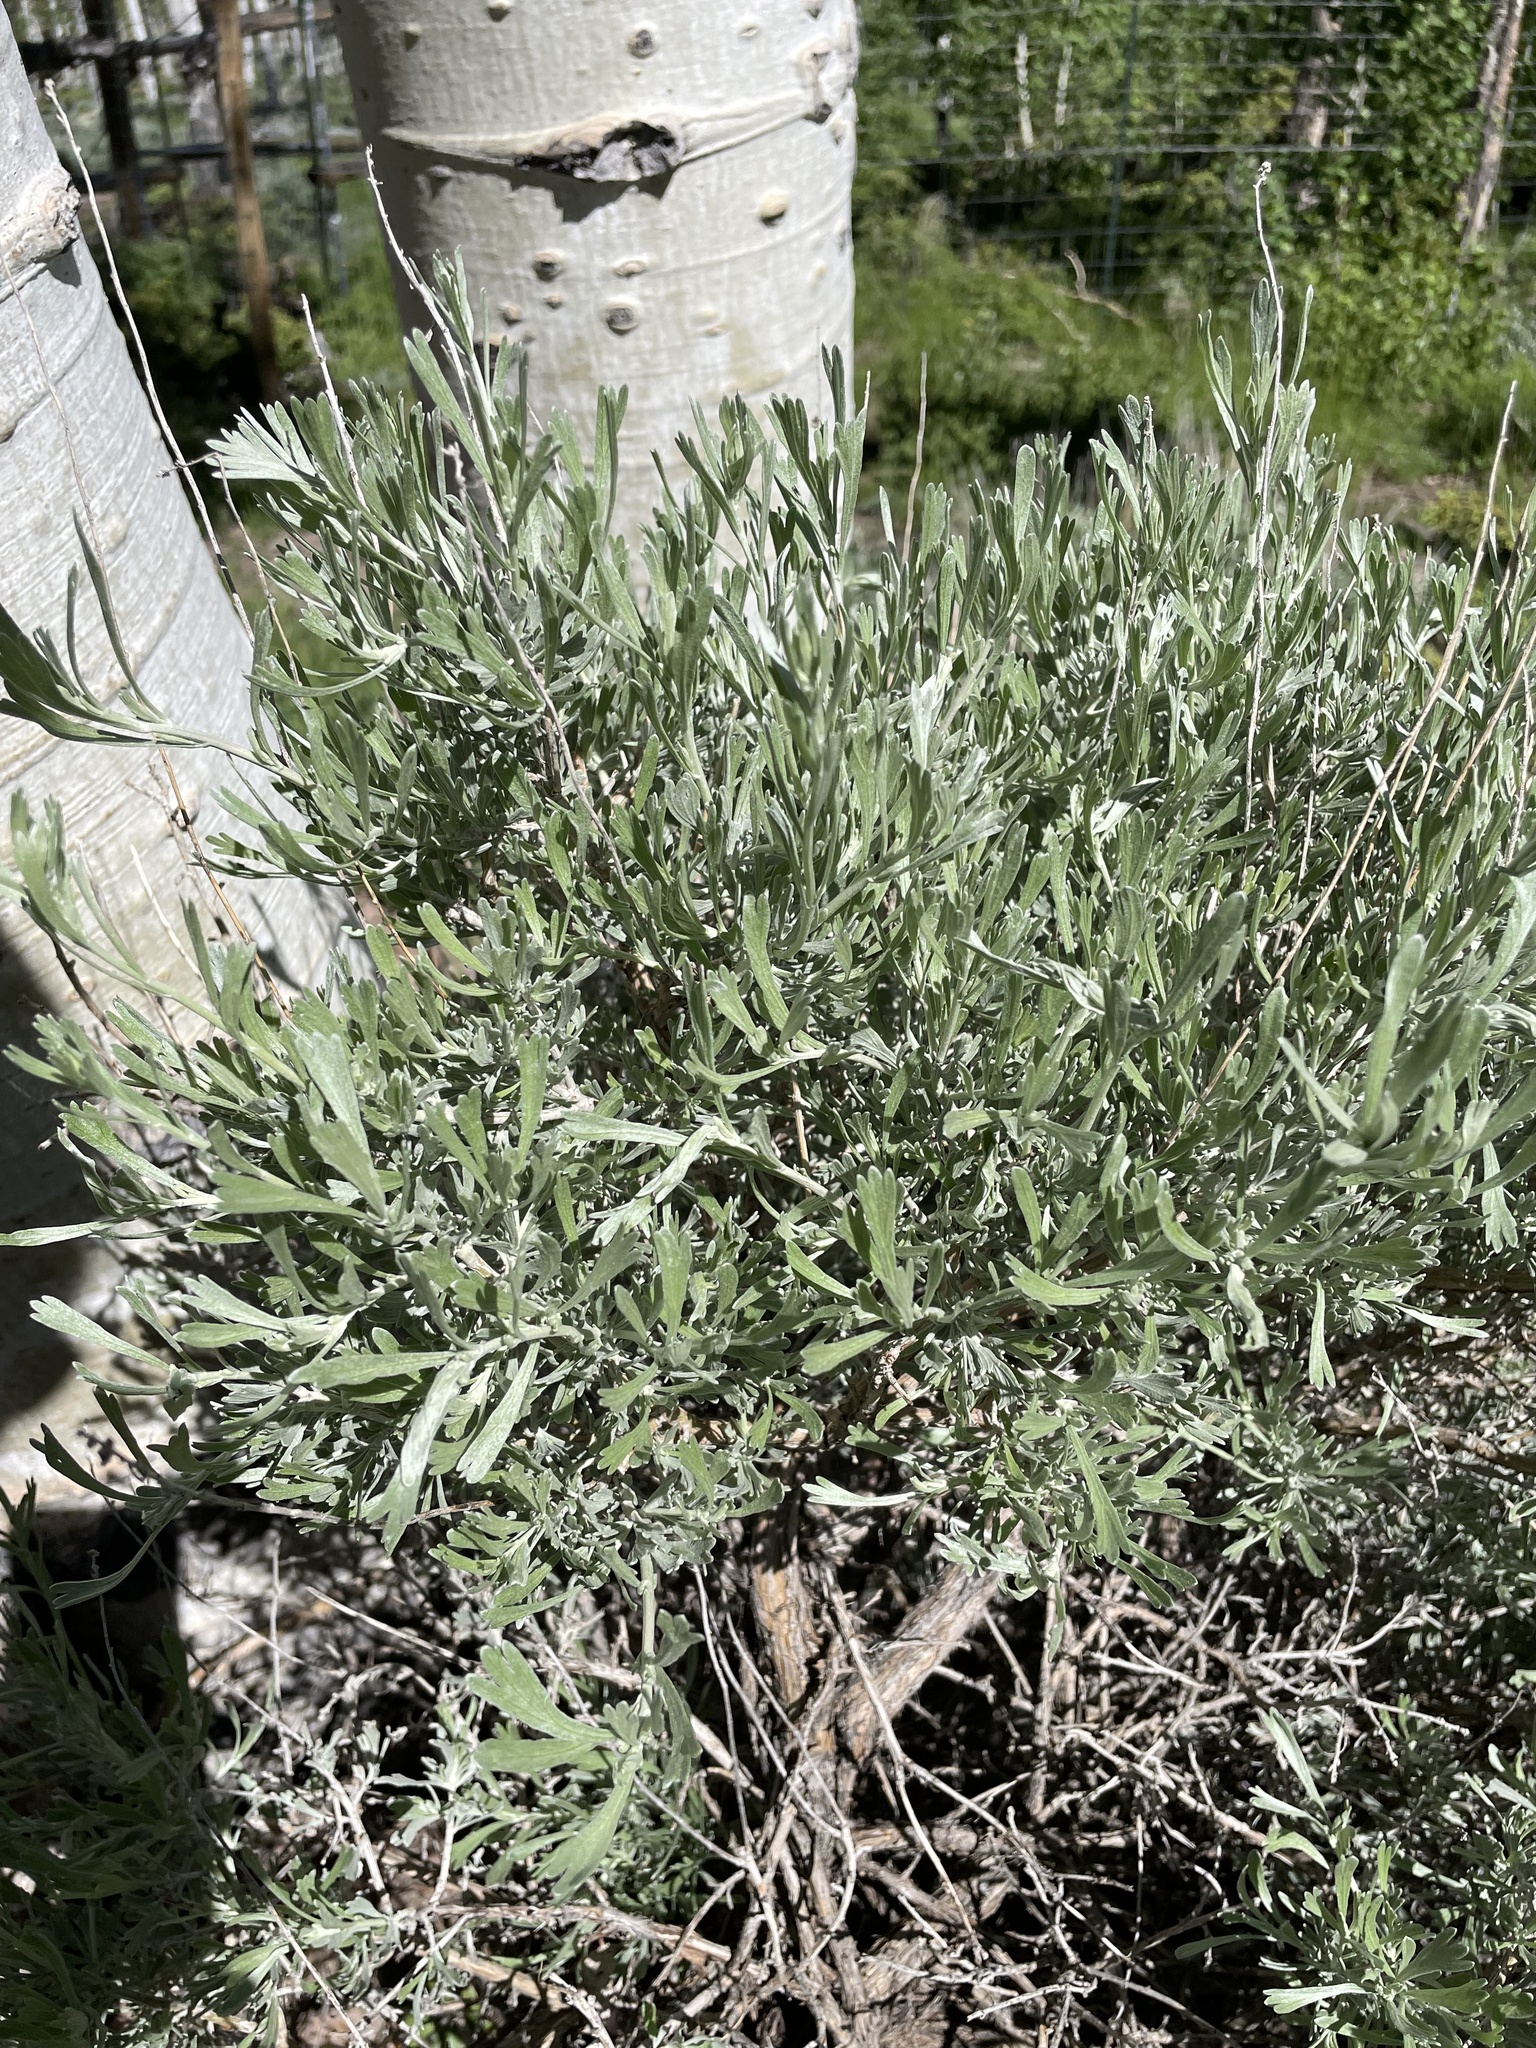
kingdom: Plantae
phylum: Tracheophyta
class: Magnoliopsida
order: Asterales
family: Asteraceae
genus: Artemisia
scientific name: Artemisia tridentata
